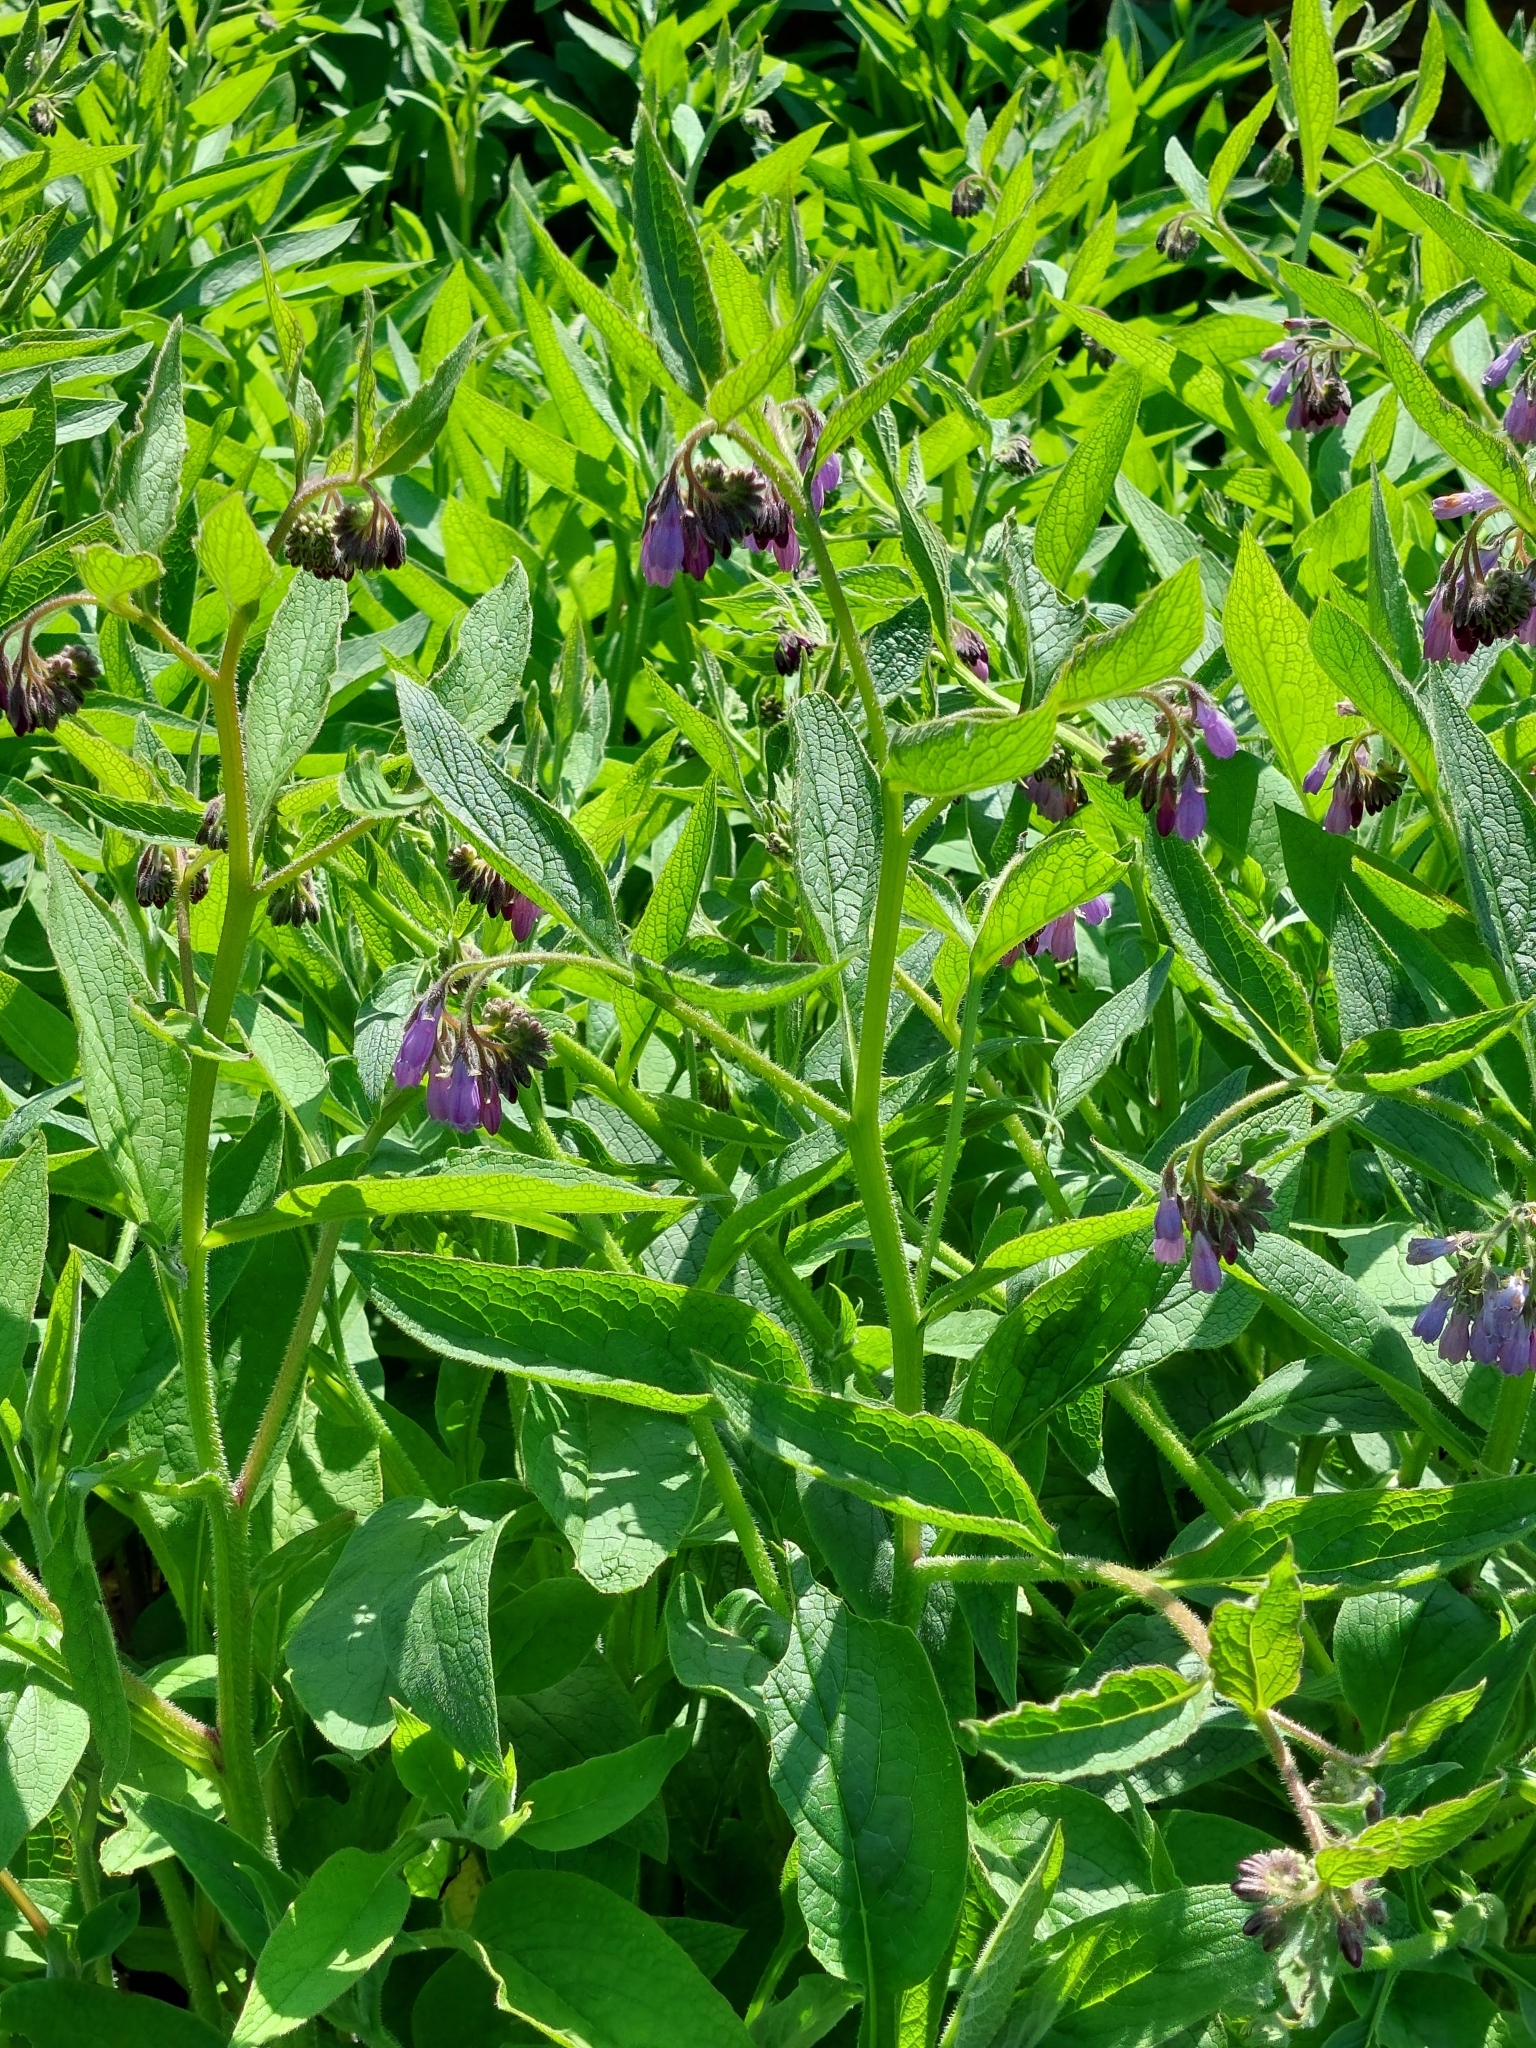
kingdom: Plantae
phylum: Tracheophyta
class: Magnoliopsida
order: Boraginales
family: Boraginaceae
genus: Symphytum
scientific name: Symphytum uplandicum
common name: Russian comfrey
